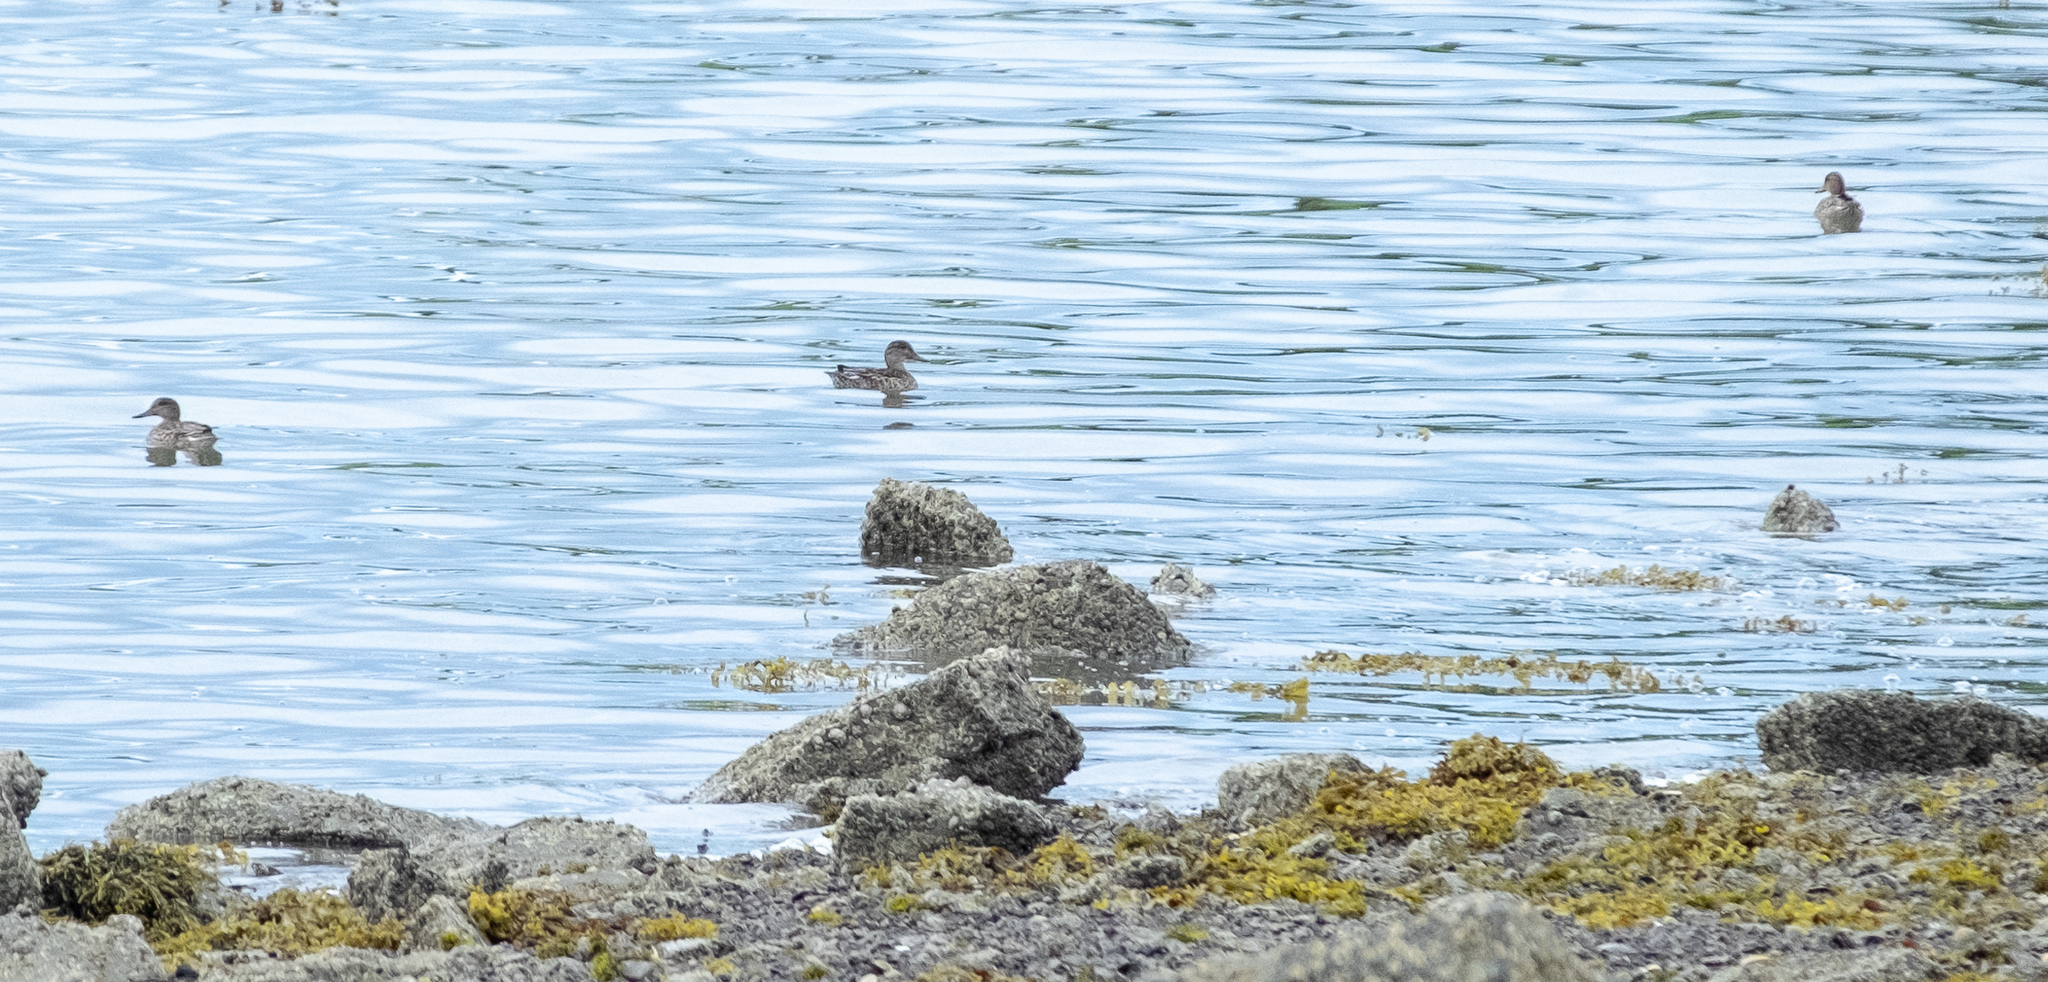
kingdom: Animalia
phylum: Chordata
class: Aves
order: Anseriformes
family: Anatidae
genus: Anas
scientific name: Anas crecca
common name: Eurasian teal
